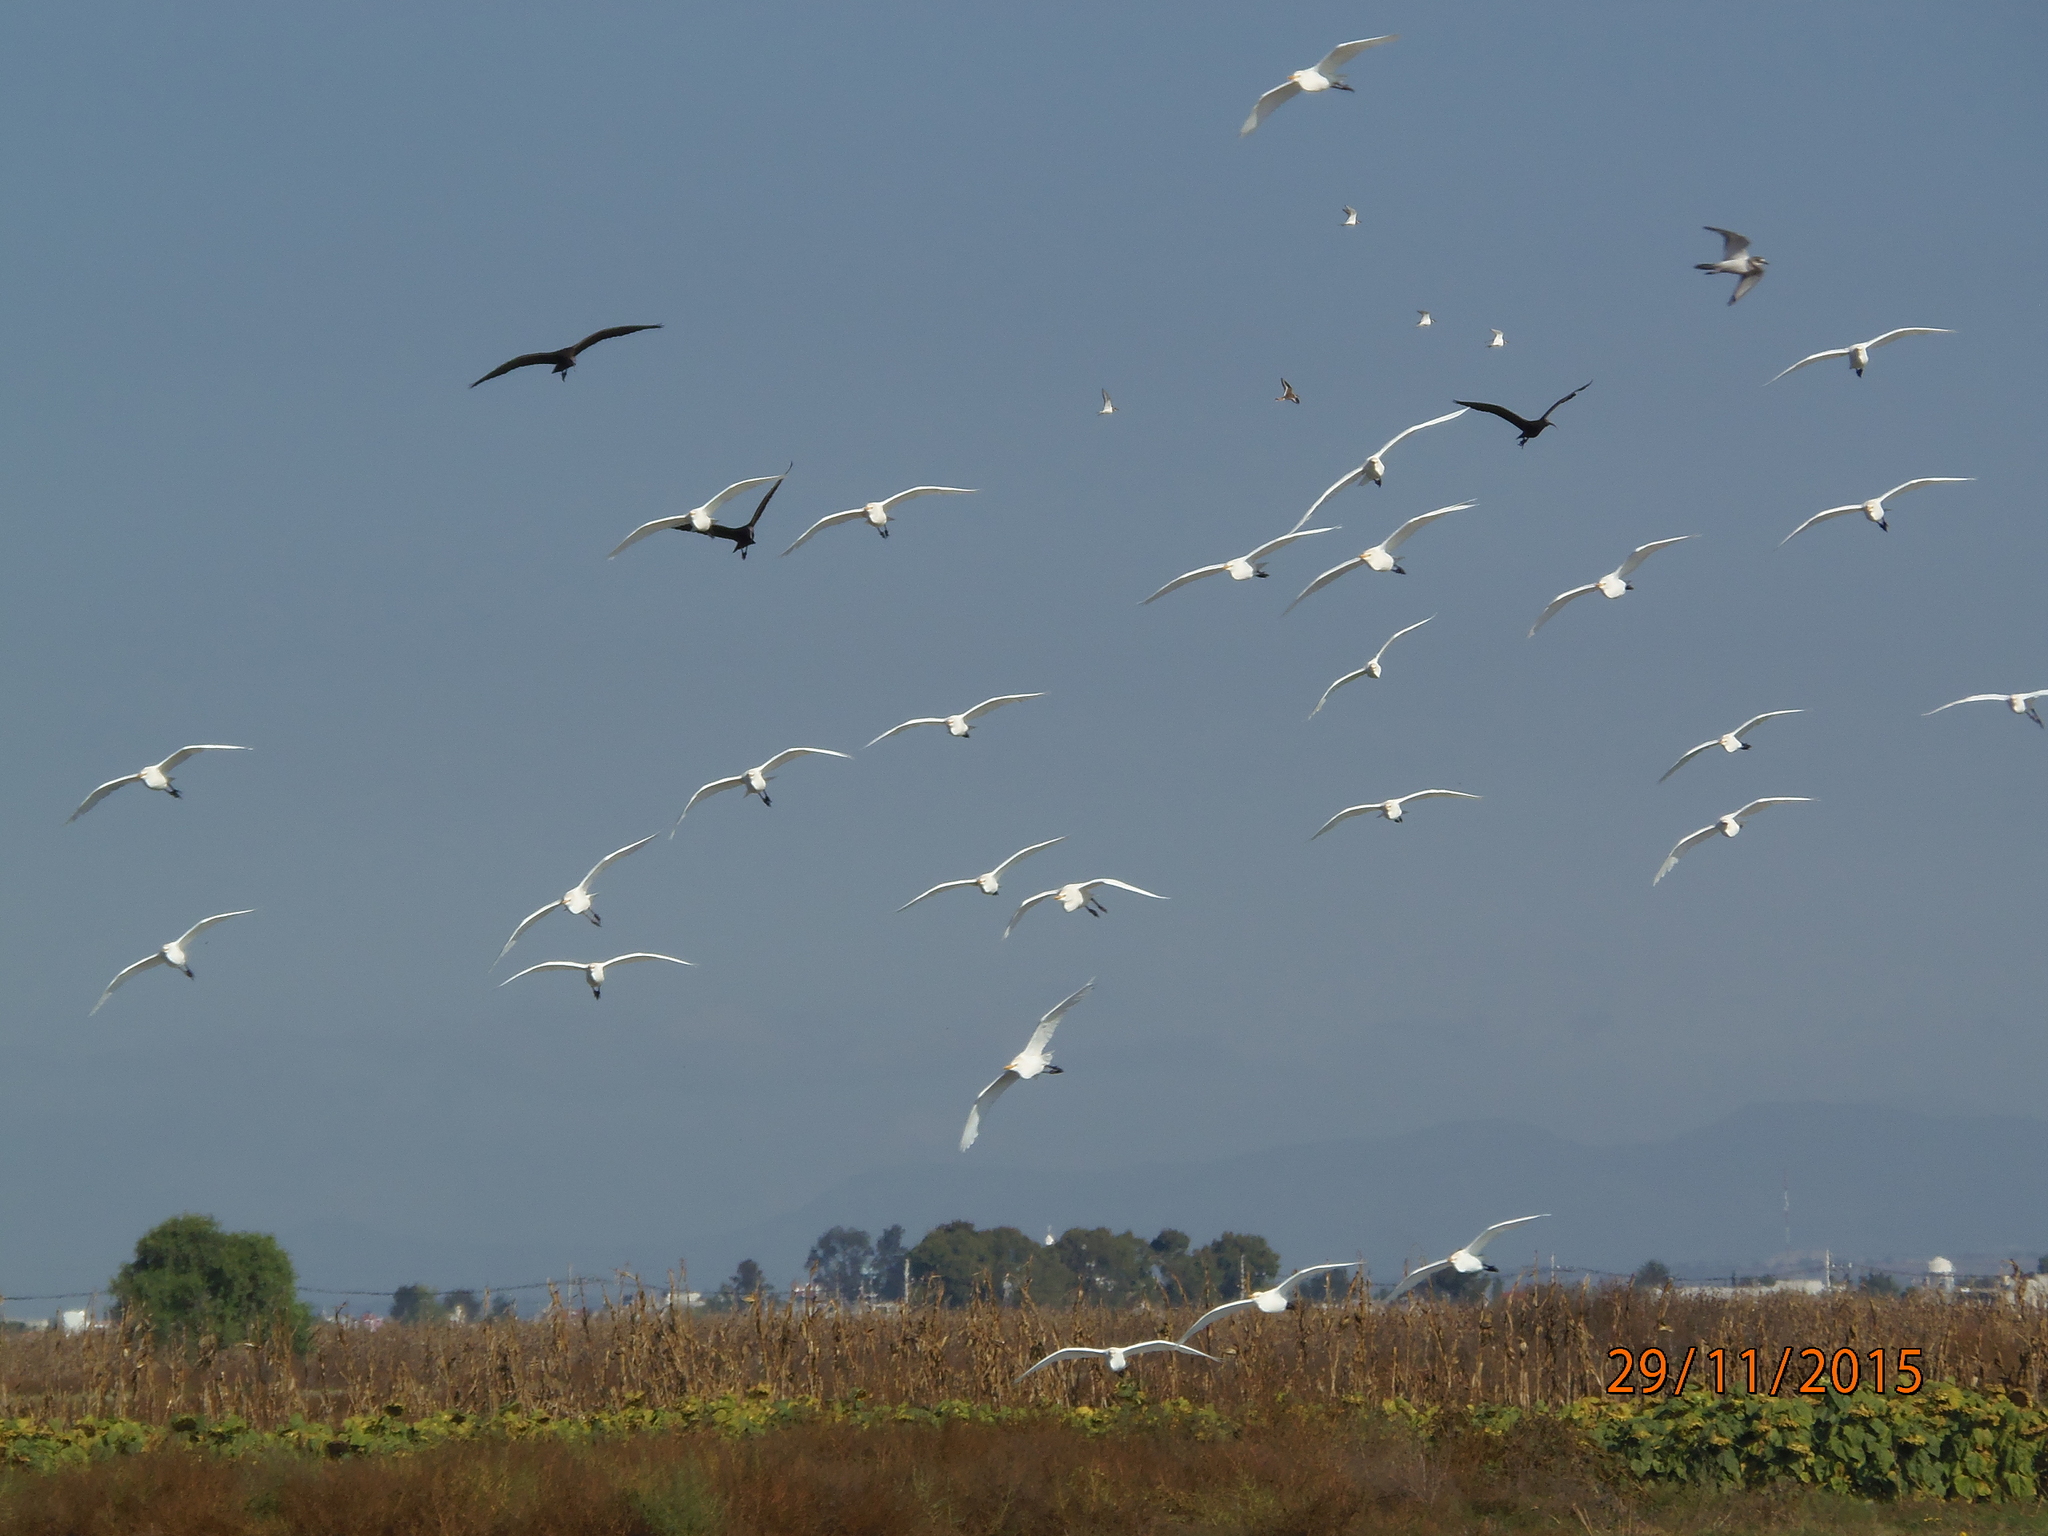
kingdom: Animalia
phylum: Chordata
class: Aves
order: Pelecaniformes
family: Ardeidae
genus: Bubulcus
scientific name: Bubulcus ibis
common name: Cattle egret
